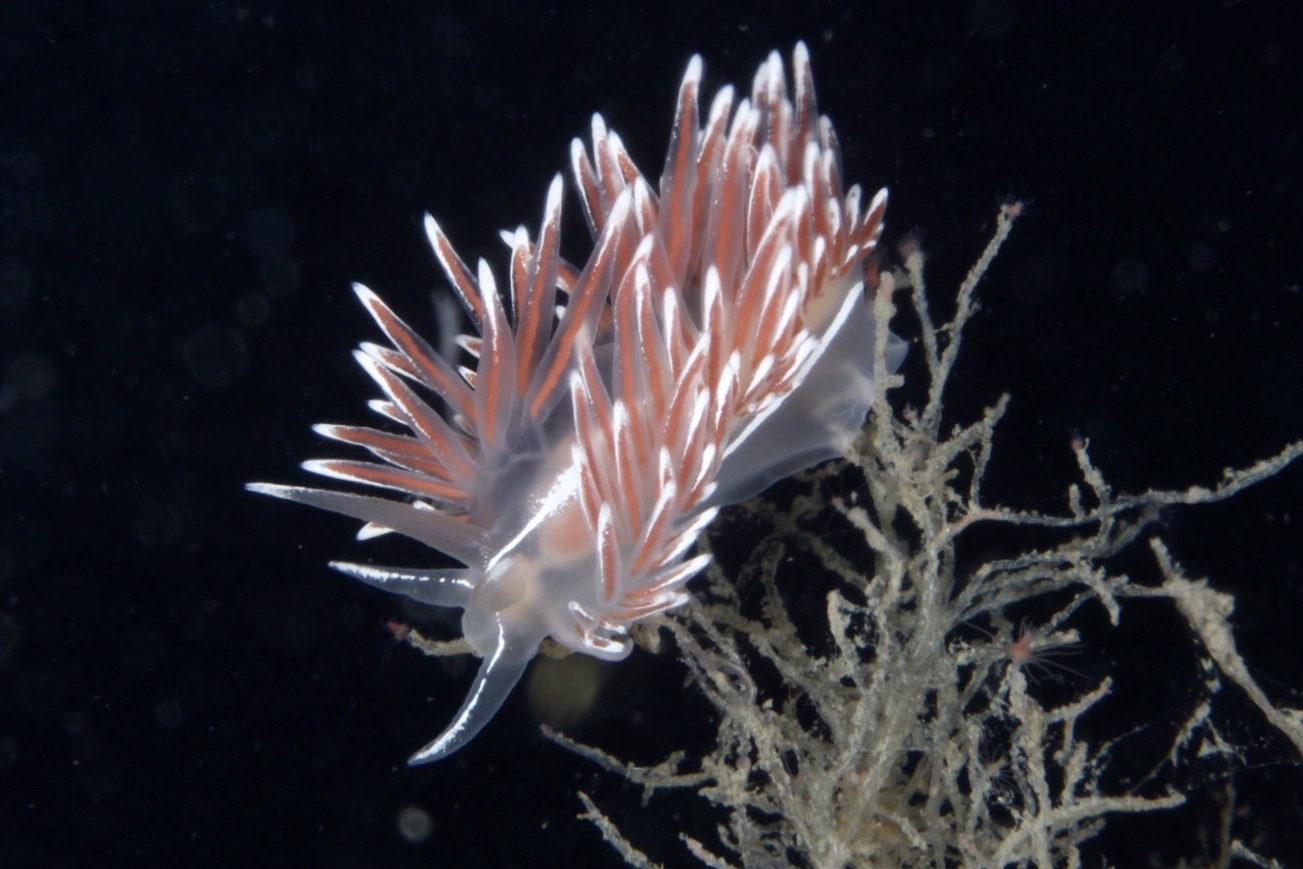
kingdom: Animalia
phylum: Mollusca
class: Gastropoda
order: Nudibranchia
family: Coryphellidae
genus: Coryphella
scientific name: Coryphella lineata
